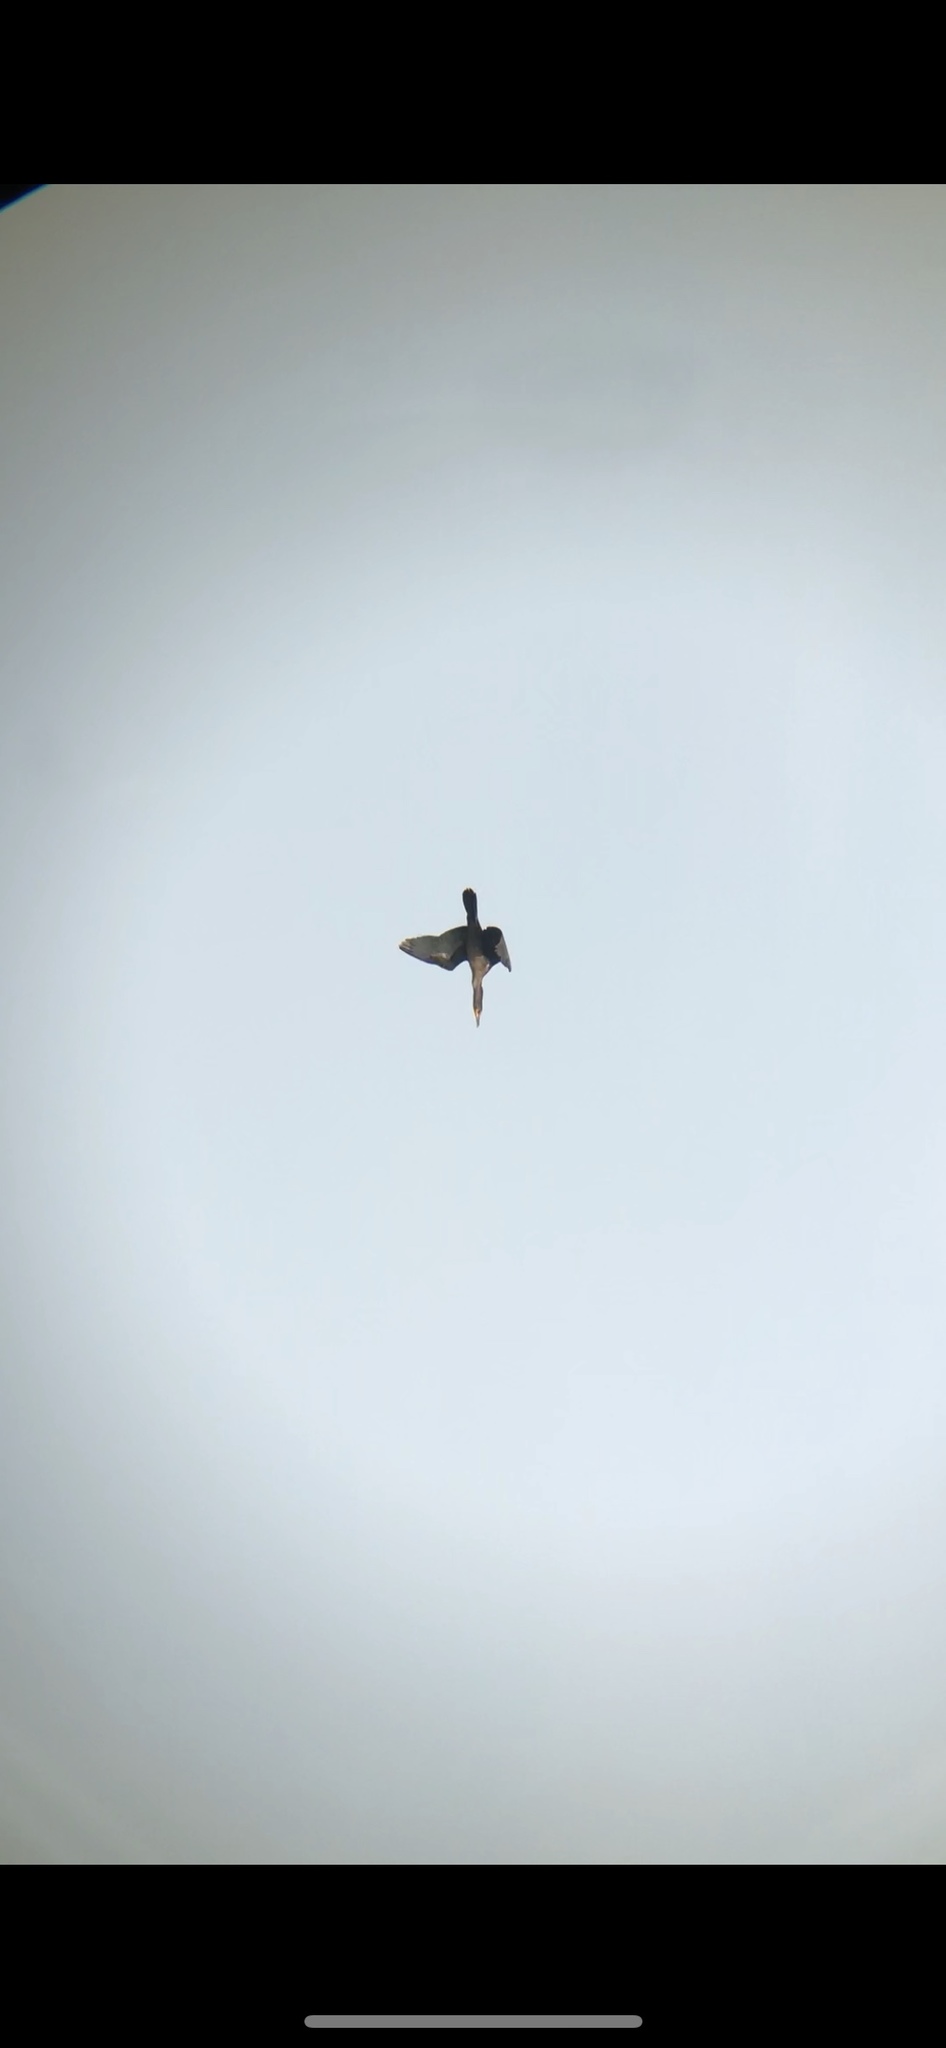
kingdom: Animalia
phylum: Chordata
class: Aves
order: Suliformes
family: Phalacrocoracidae
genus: Phalacrocorax
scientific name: Phalacrocorax auritus
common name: Double-crested cormorant
